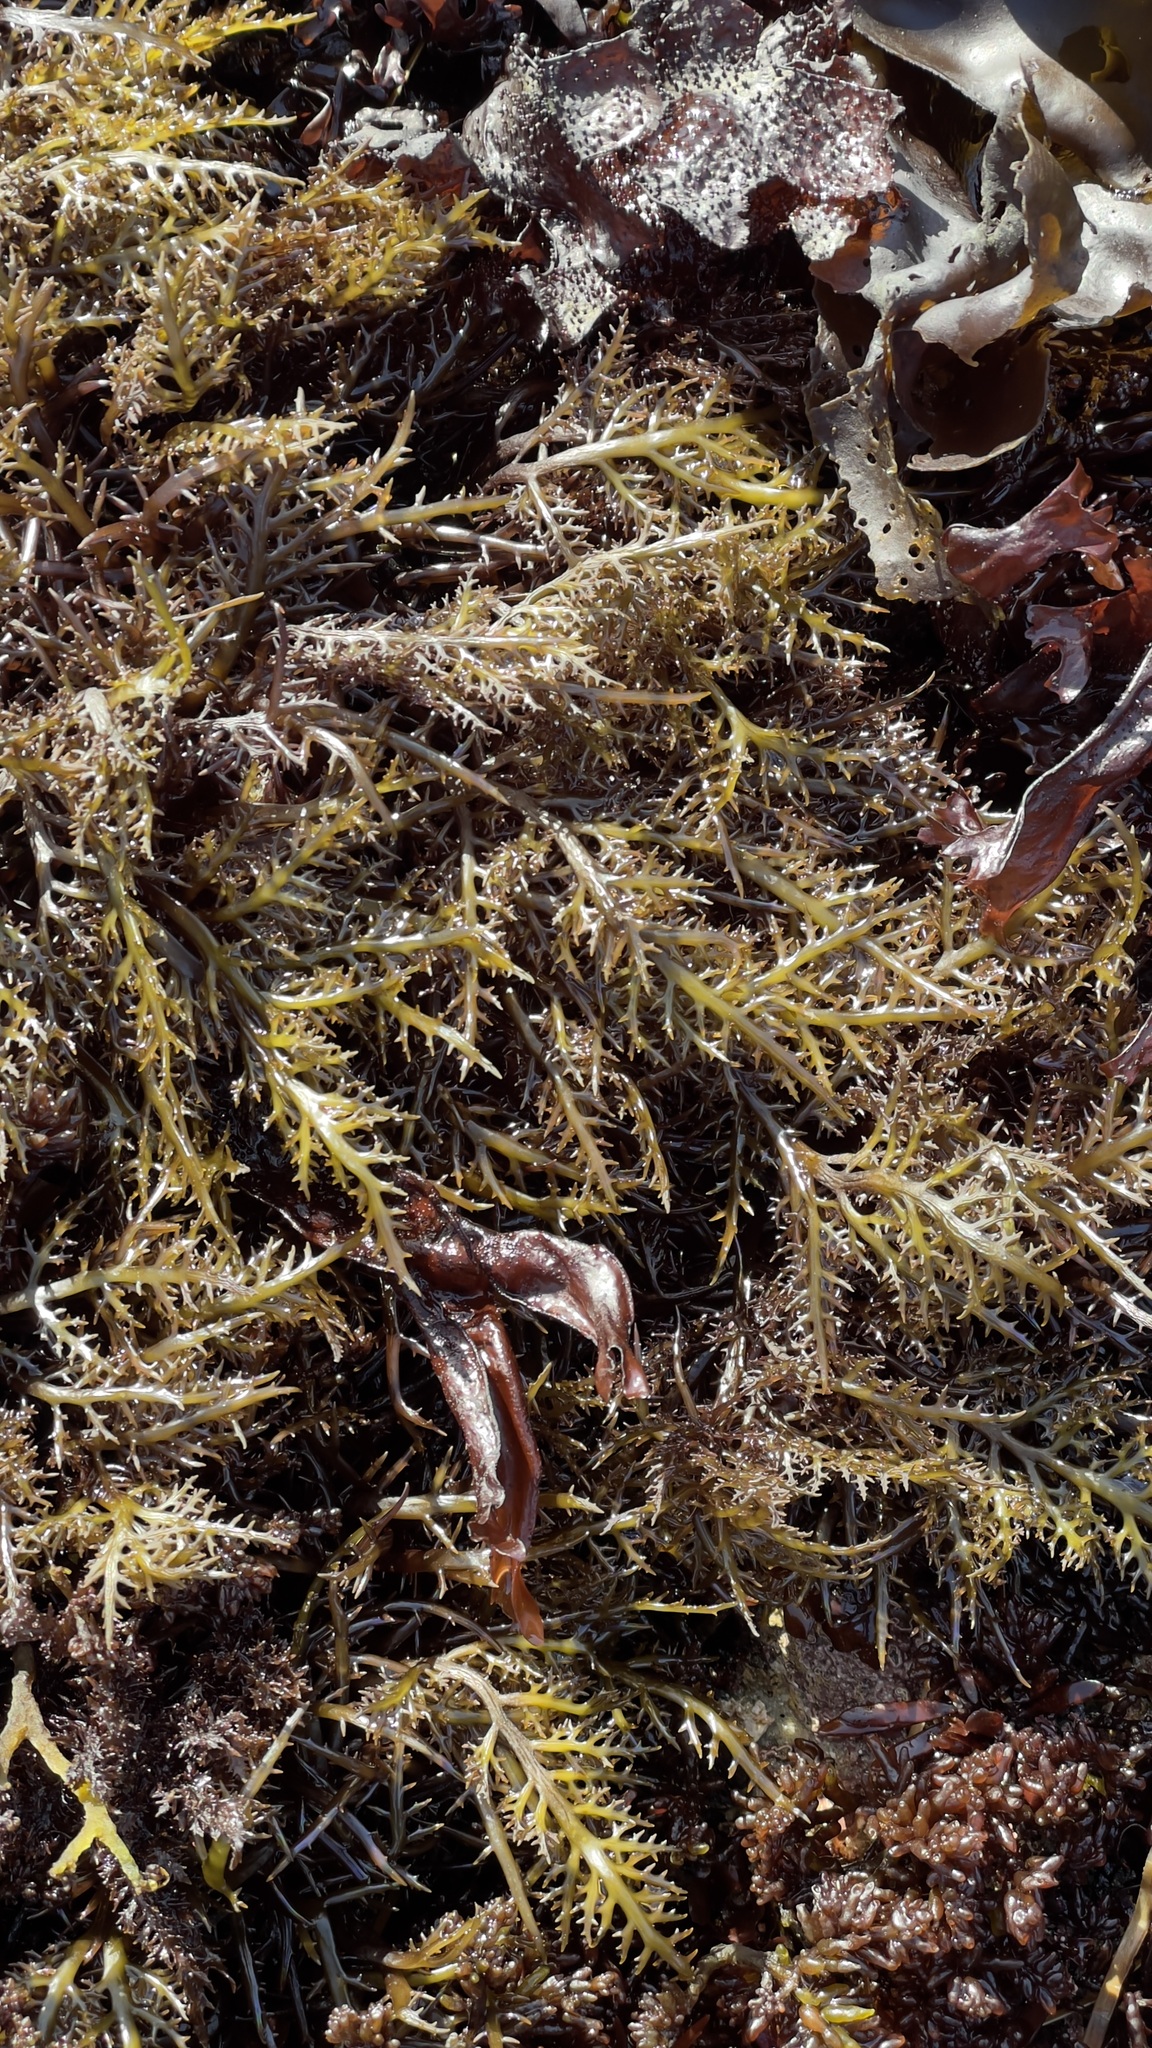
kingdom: Plantae
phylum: Rhodophyta
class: Florideophyceae
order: Gigartinales
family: Gigartinaceae
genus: Chondracanthus
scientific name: Chondracanthus canaliculatus
